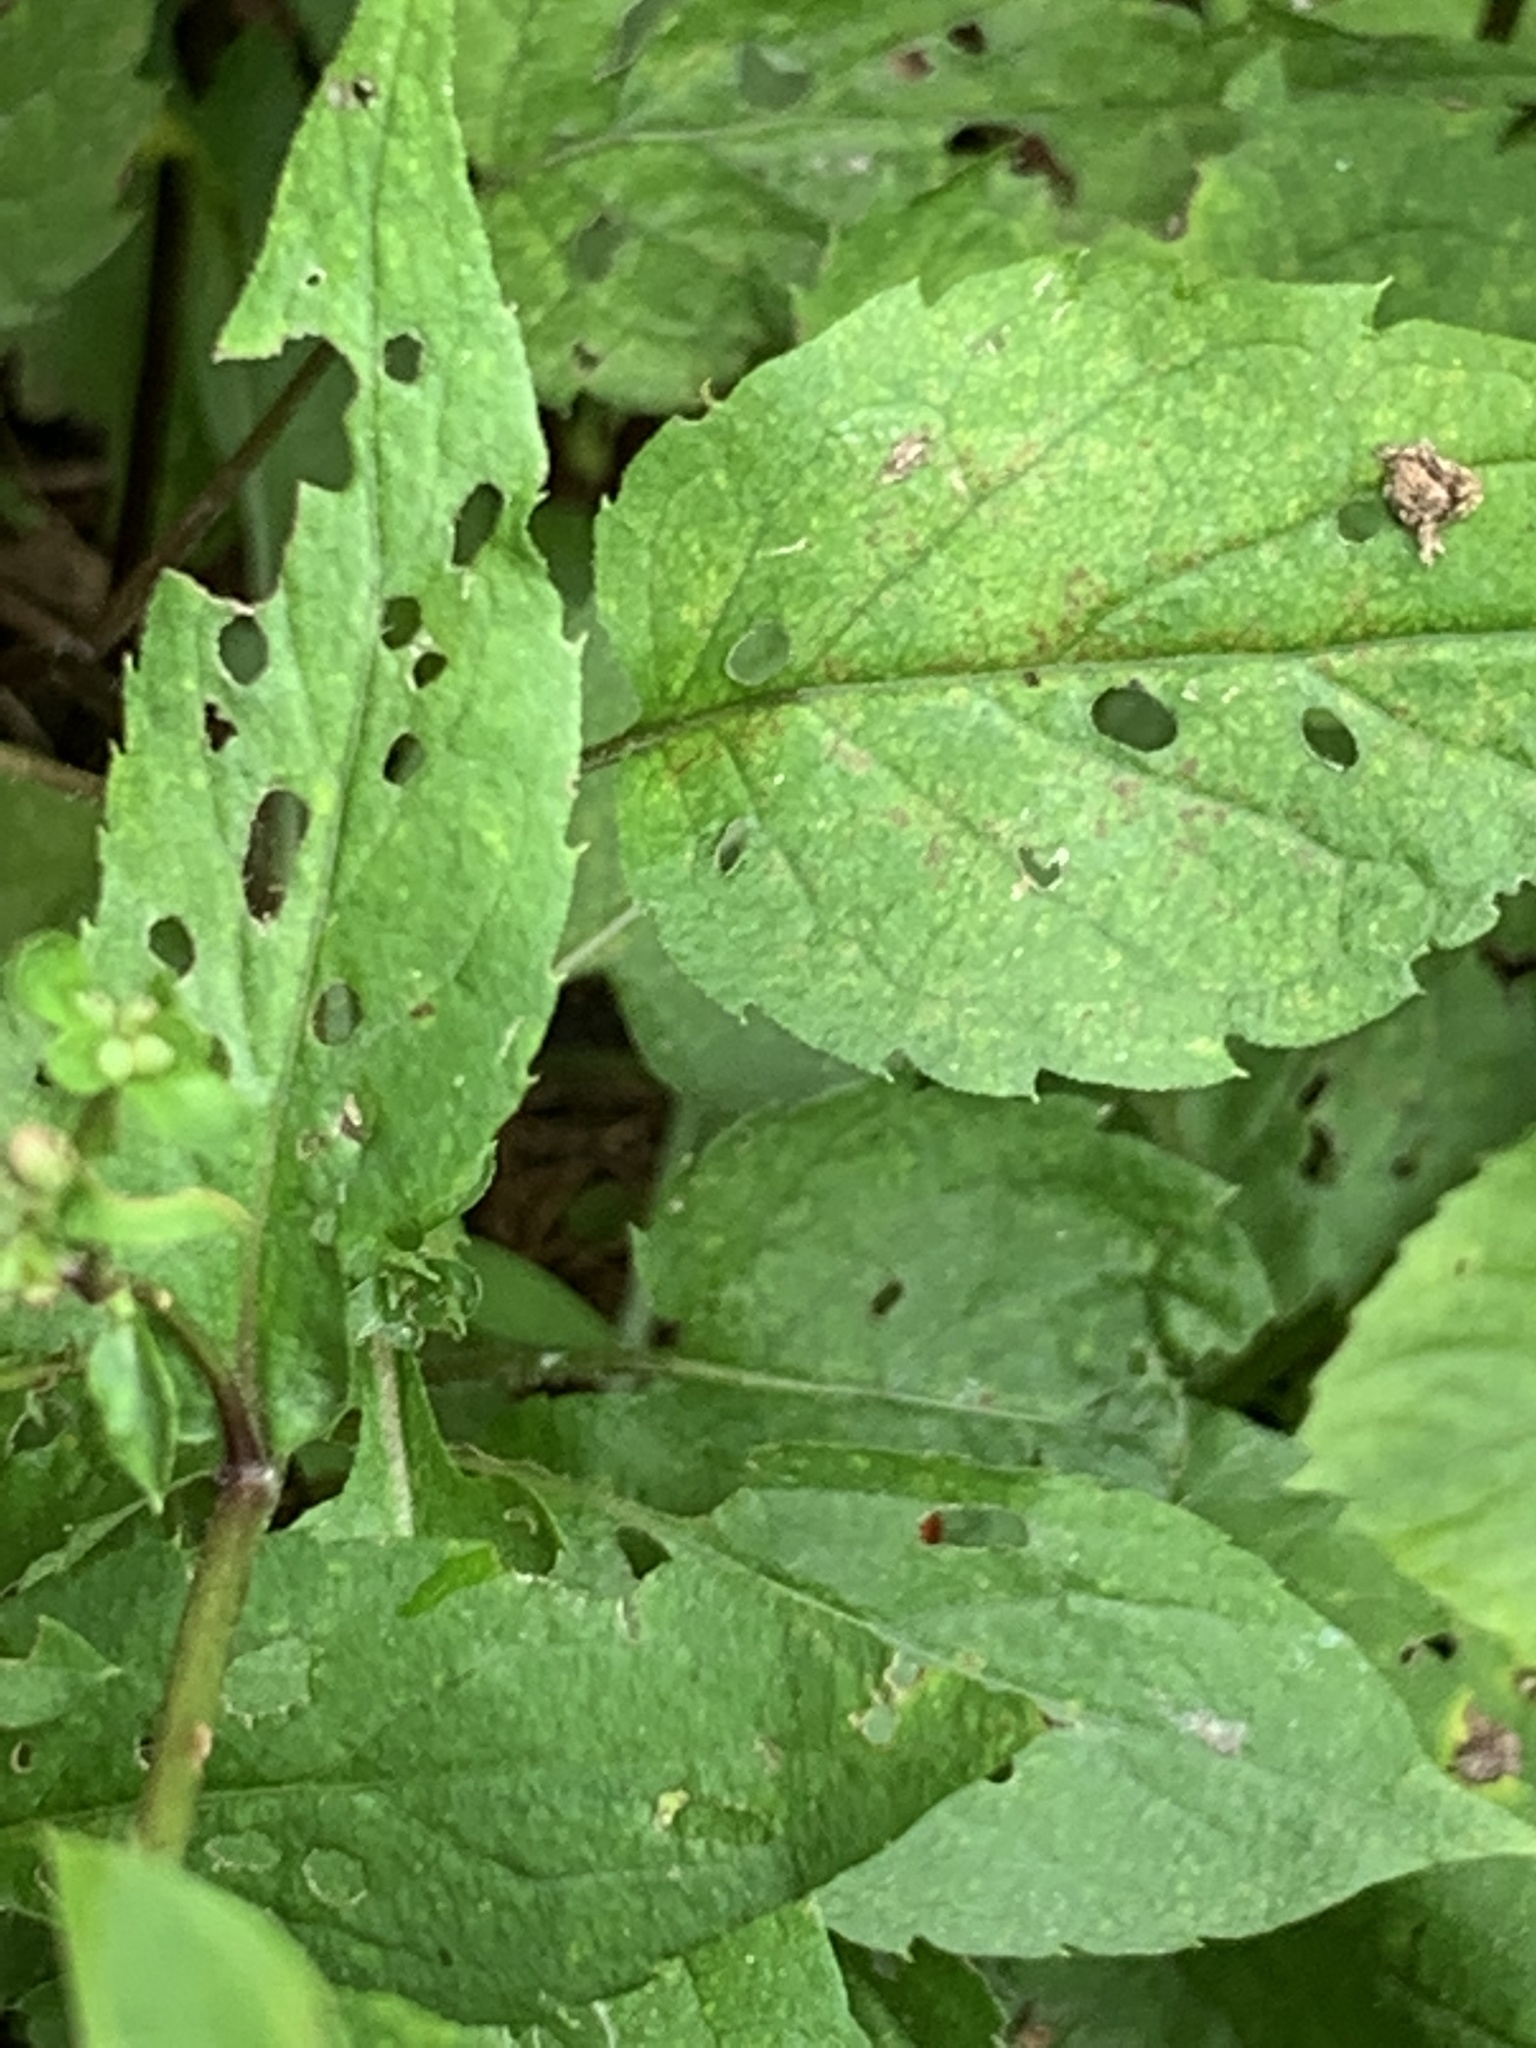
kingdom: Plantae
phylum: Tracheophyta
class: Magnoliopsida
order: Asterales
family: Asteraceae
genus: Eurybia
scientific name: Eurybia divaricata
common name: White wood aster
